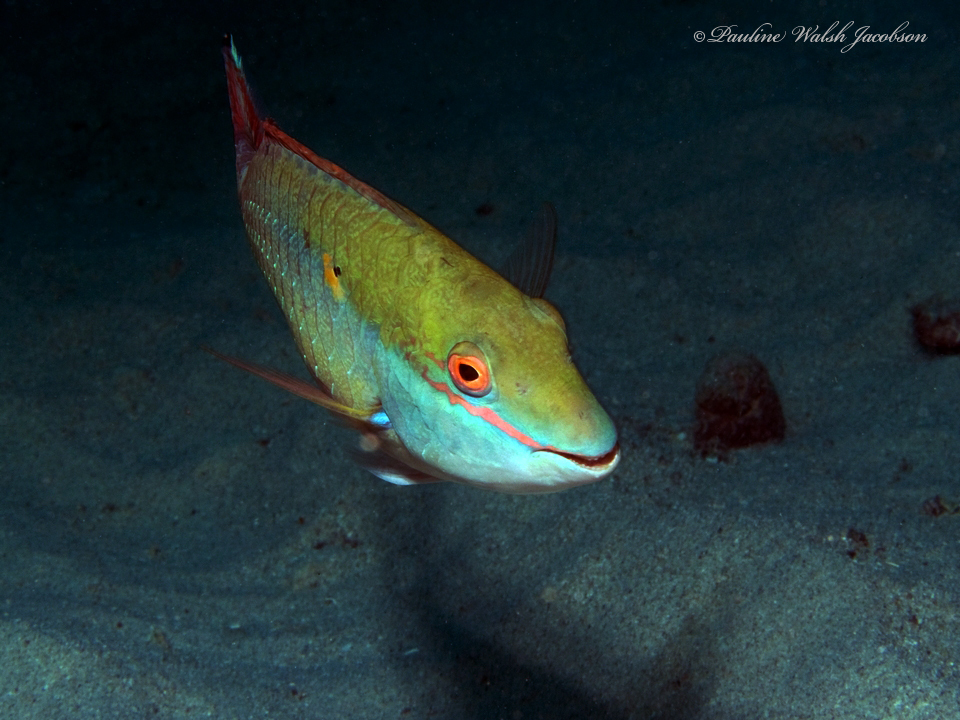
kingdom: Animalia
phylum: Chordata
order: Perciformes
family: Scaridae
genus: Sparisoma
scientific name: Sparisoma aurofrenatum
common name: Redband parrotfish
